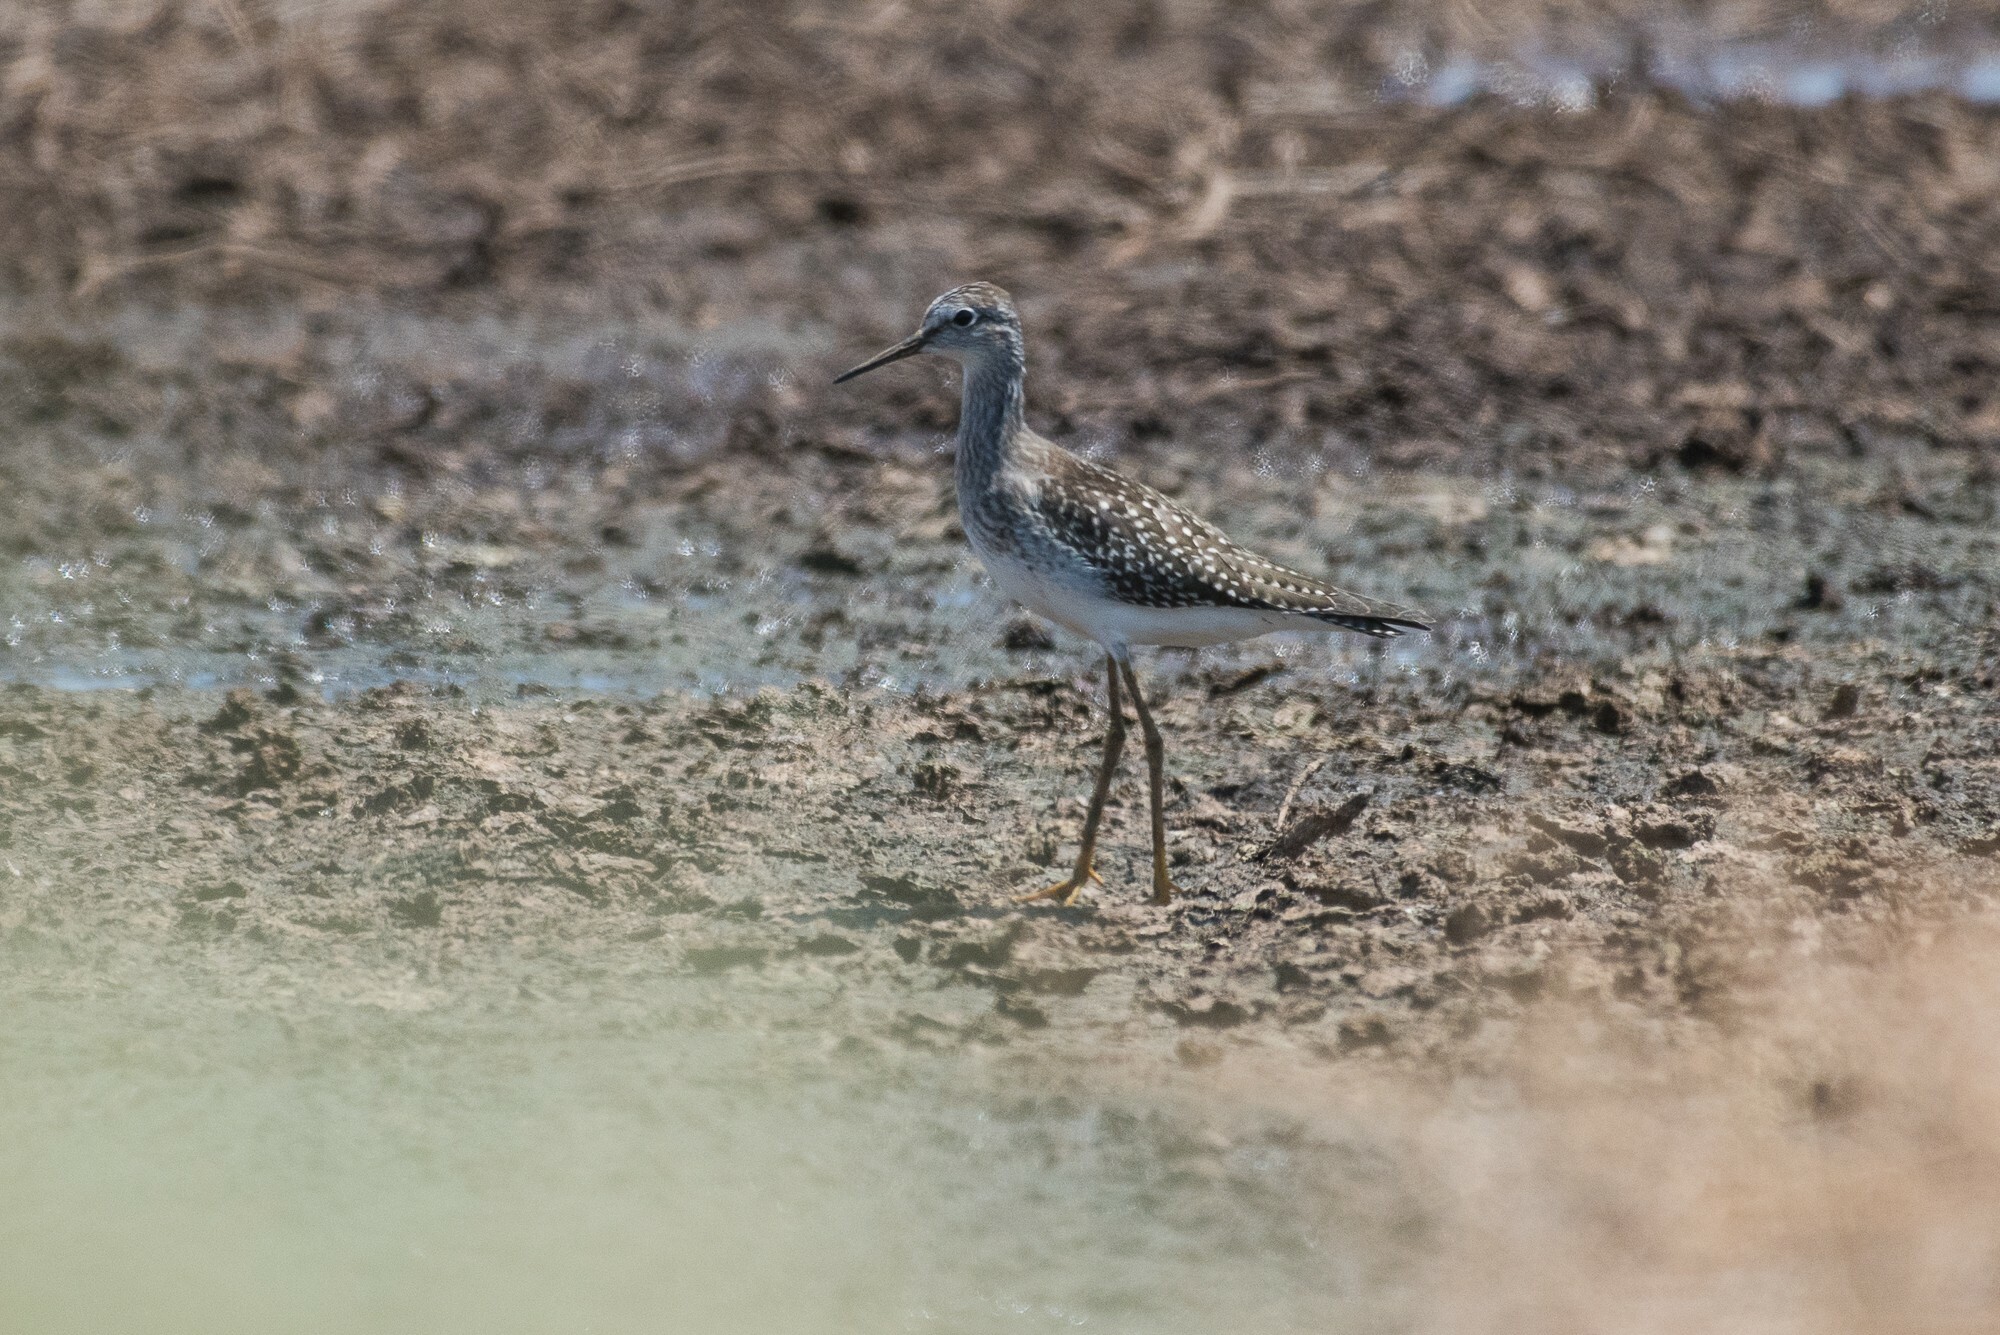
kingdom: Animalia
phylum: Chordata
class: Aves
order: Charadriiformes
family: Scolopacidae
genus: Tringa
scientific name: Tringa flavipes
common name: Lesser yellowlegs
